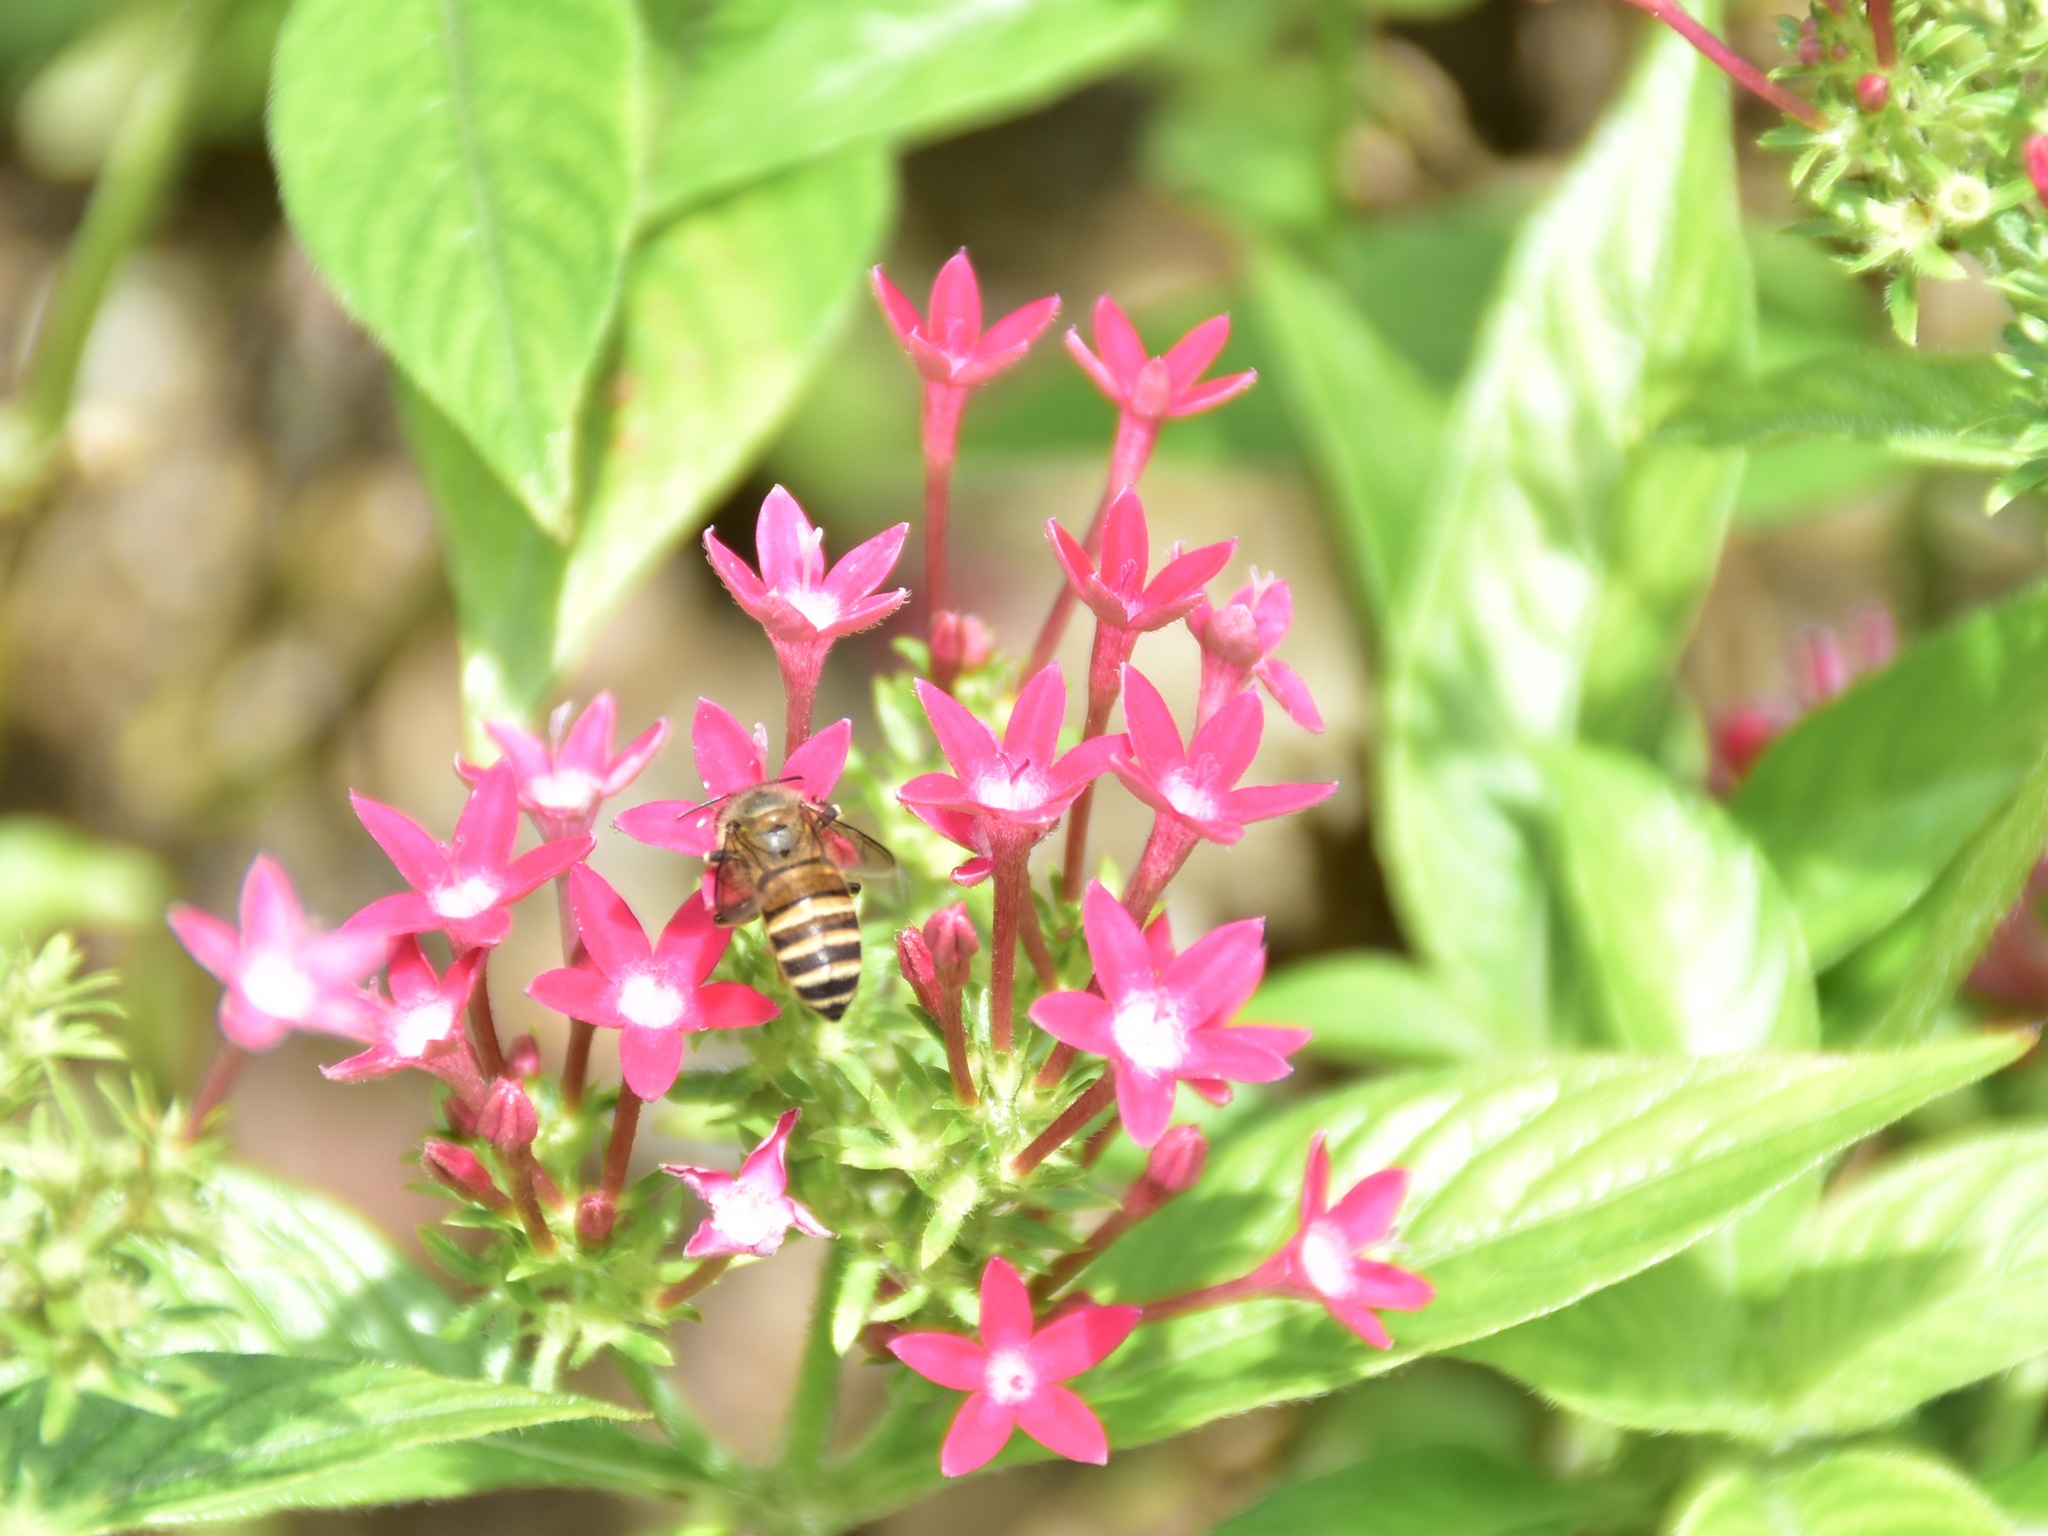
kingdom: Animalia
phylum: Arthropoda
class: Insecta
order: Hymenoptera
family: Apidae
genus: Apis
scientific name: Apis cerana
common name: Honey bee
